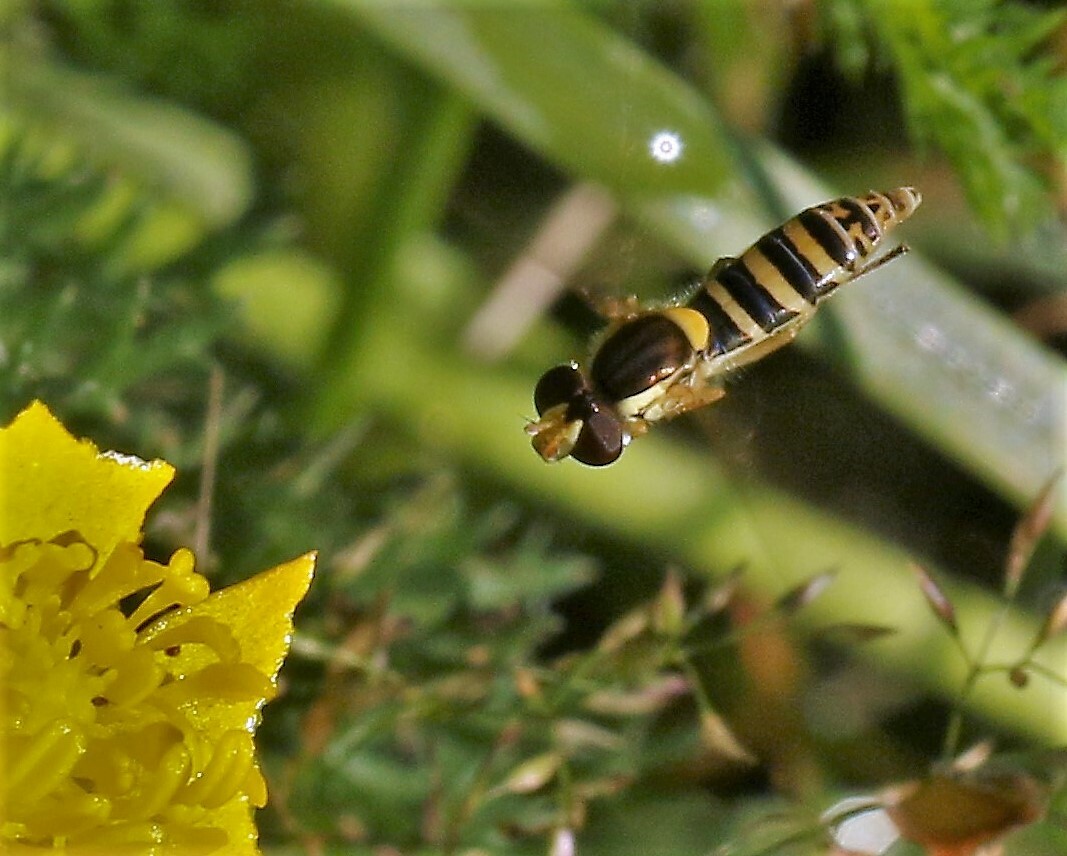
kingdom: Animalia
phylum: Arthropoda
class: Insecta
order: Diptera
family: Syrphidae
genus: Sphaerophoria
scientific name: Sphaerophoria
